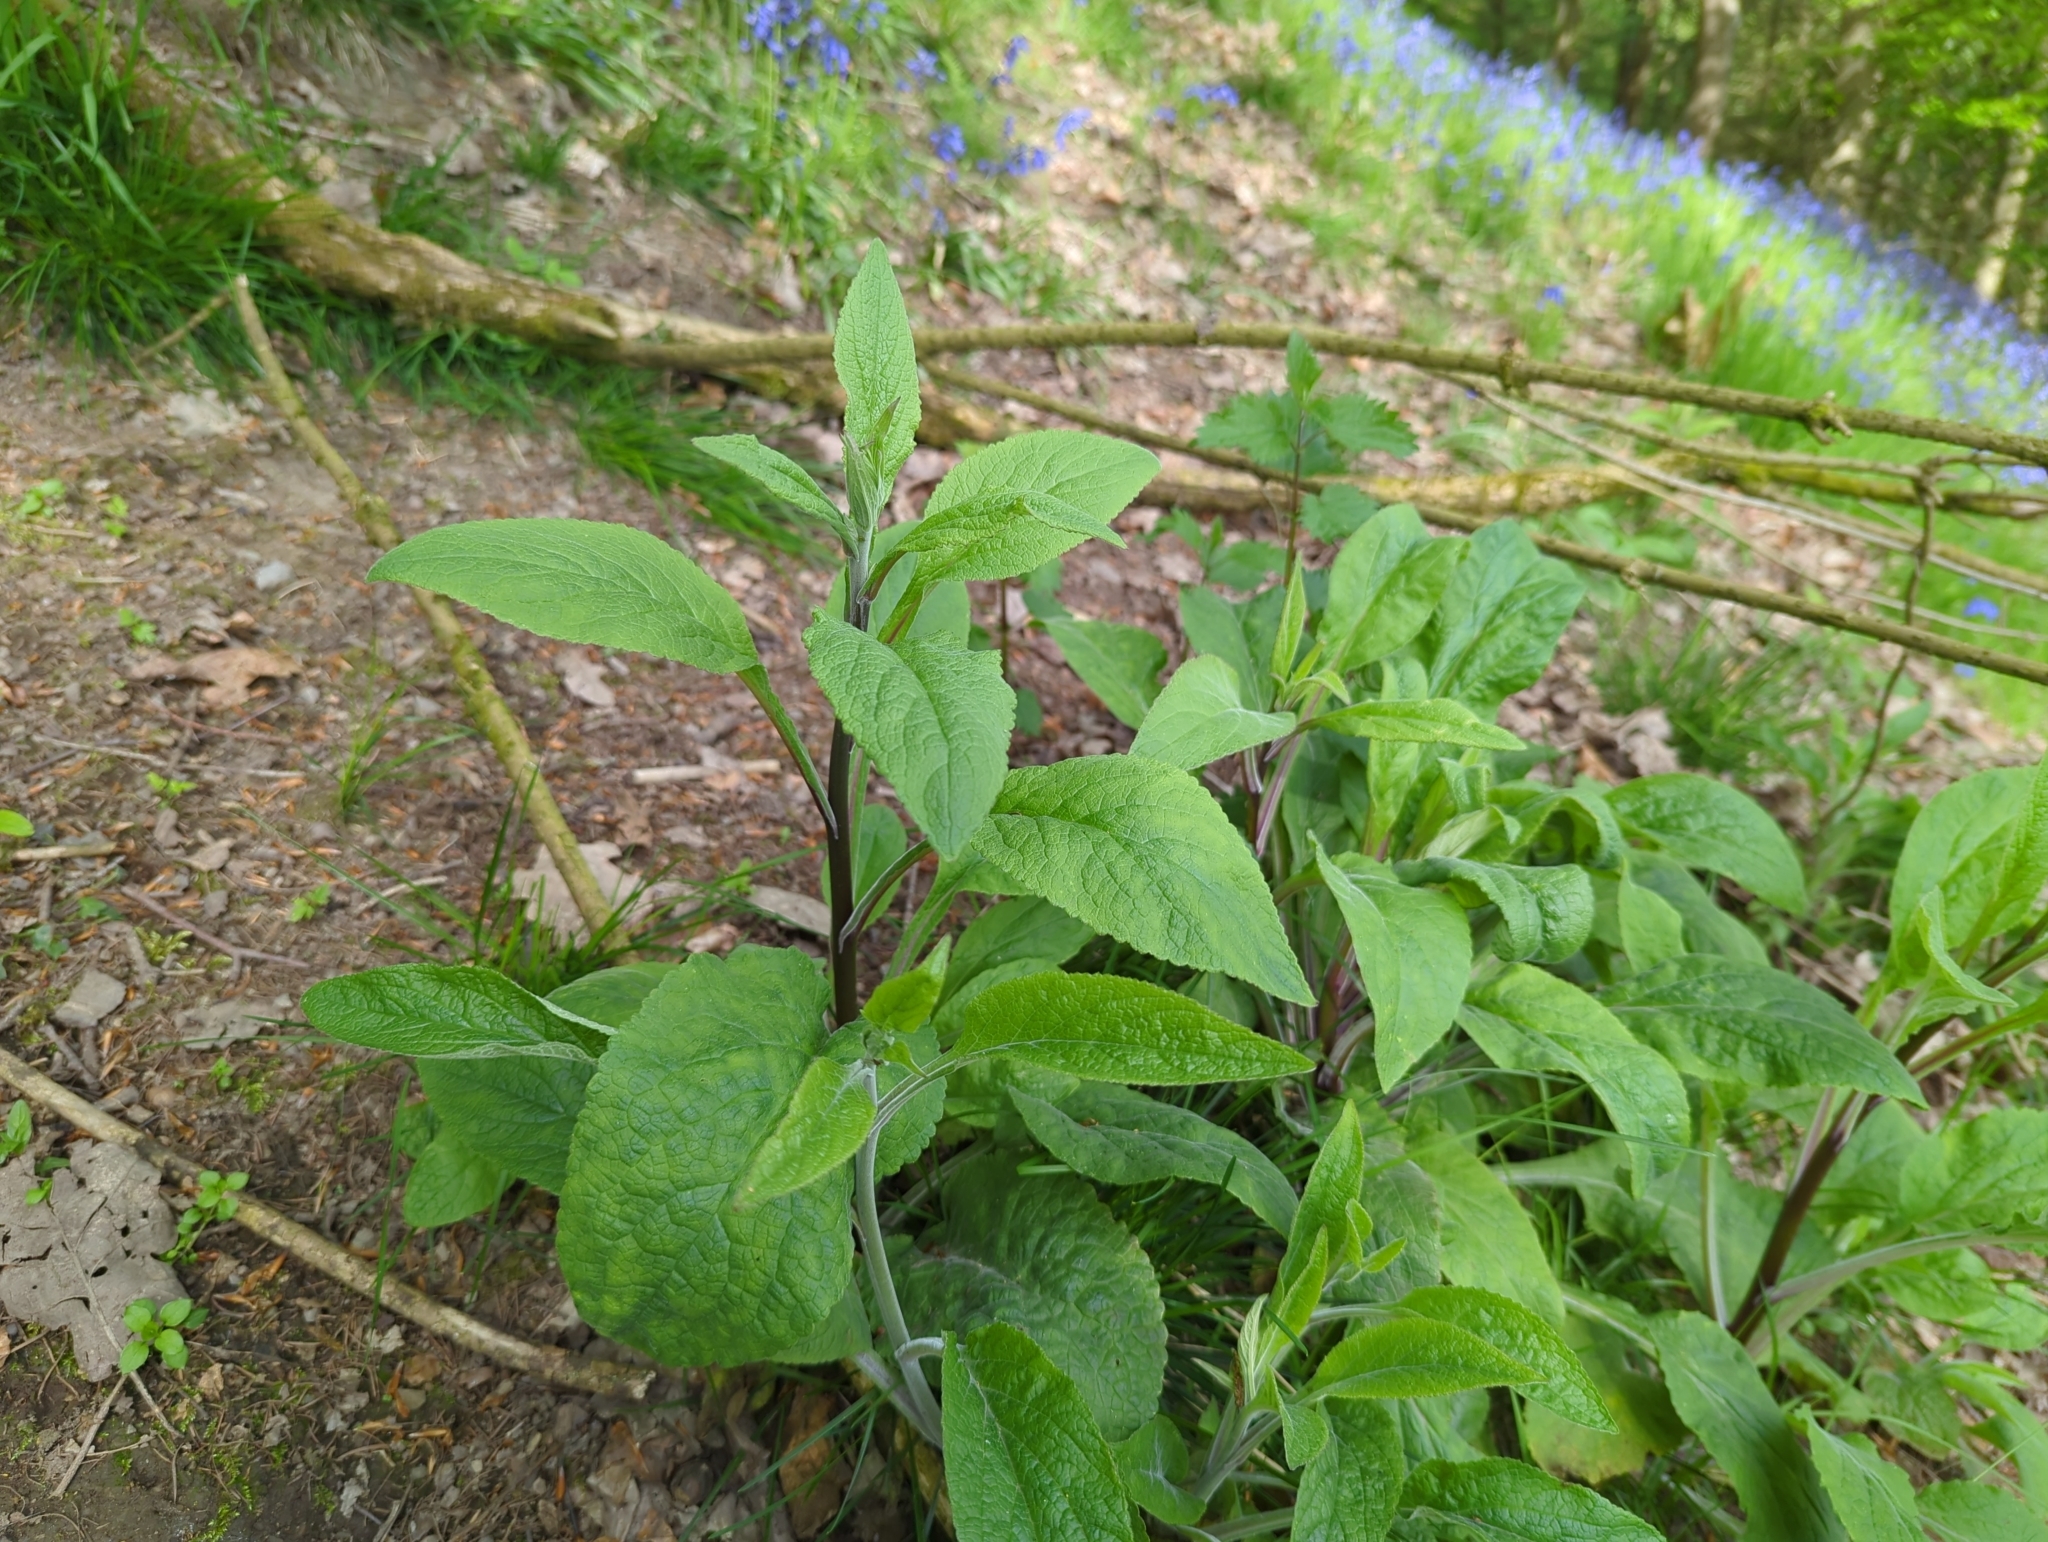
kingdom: Plantae
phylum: Tracheophyta
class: Magnoliopsida
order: Lamiales
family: Plantaginaceae
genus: Digitalis
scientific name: Digitalis purpurea
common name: Foxglove
